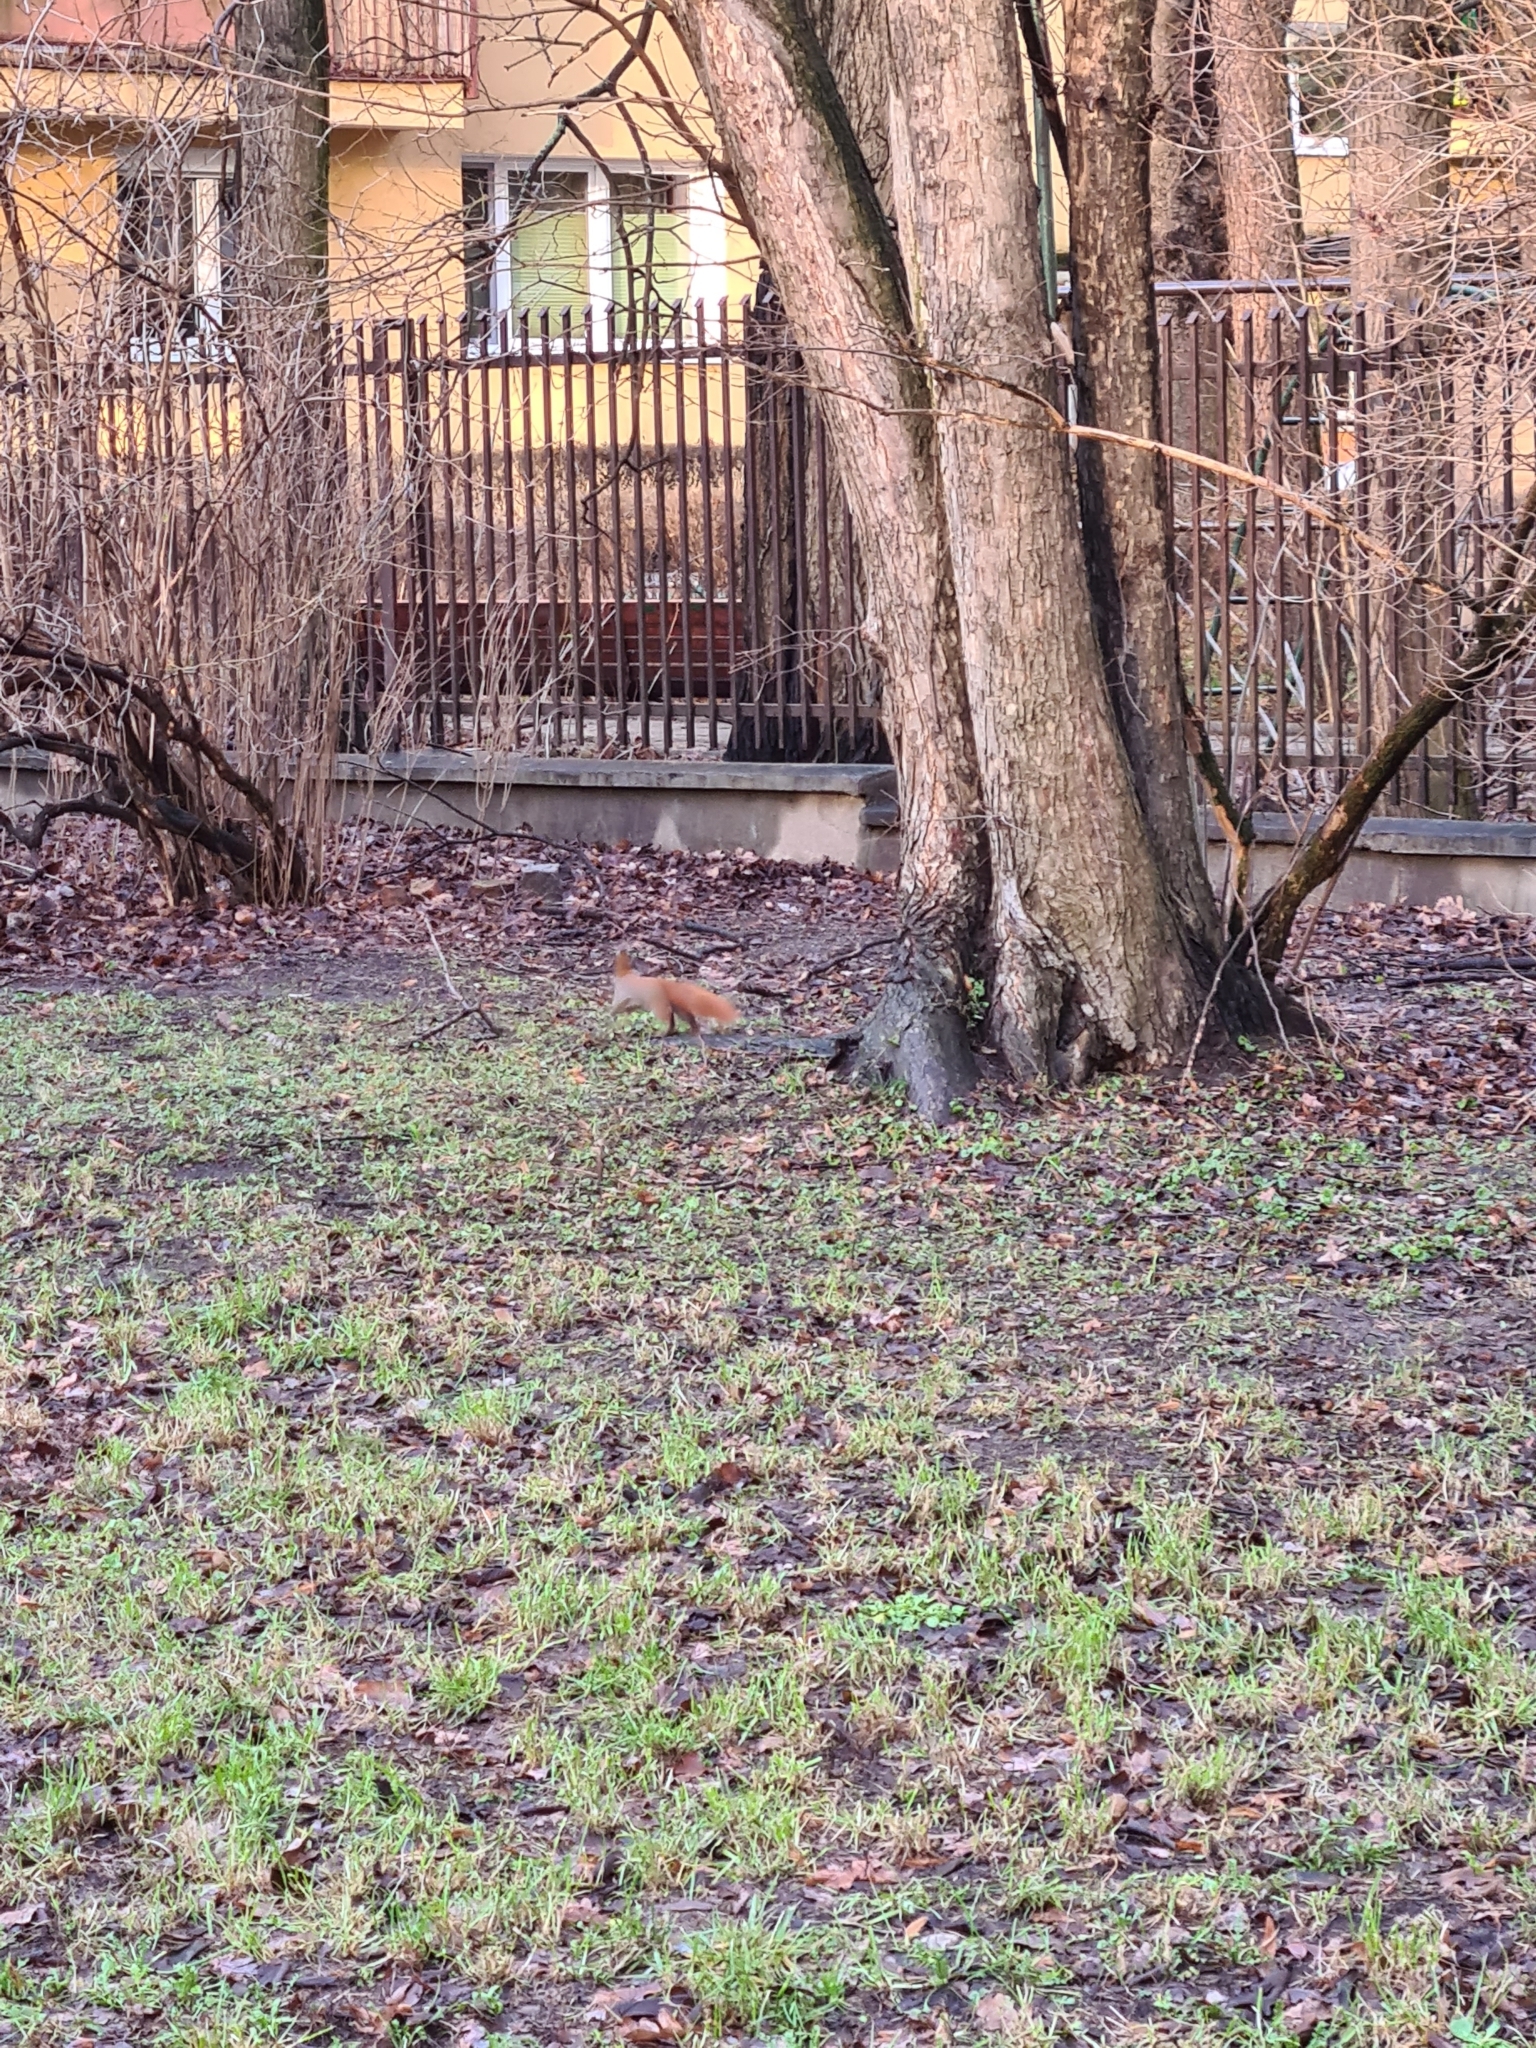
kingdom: Animalia
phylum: Chordata
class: Mammalia
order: Rodentia
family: Sciuridae
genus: Sciurus
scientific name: Sciurus vulgaris
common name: Eurasian red squirrel
